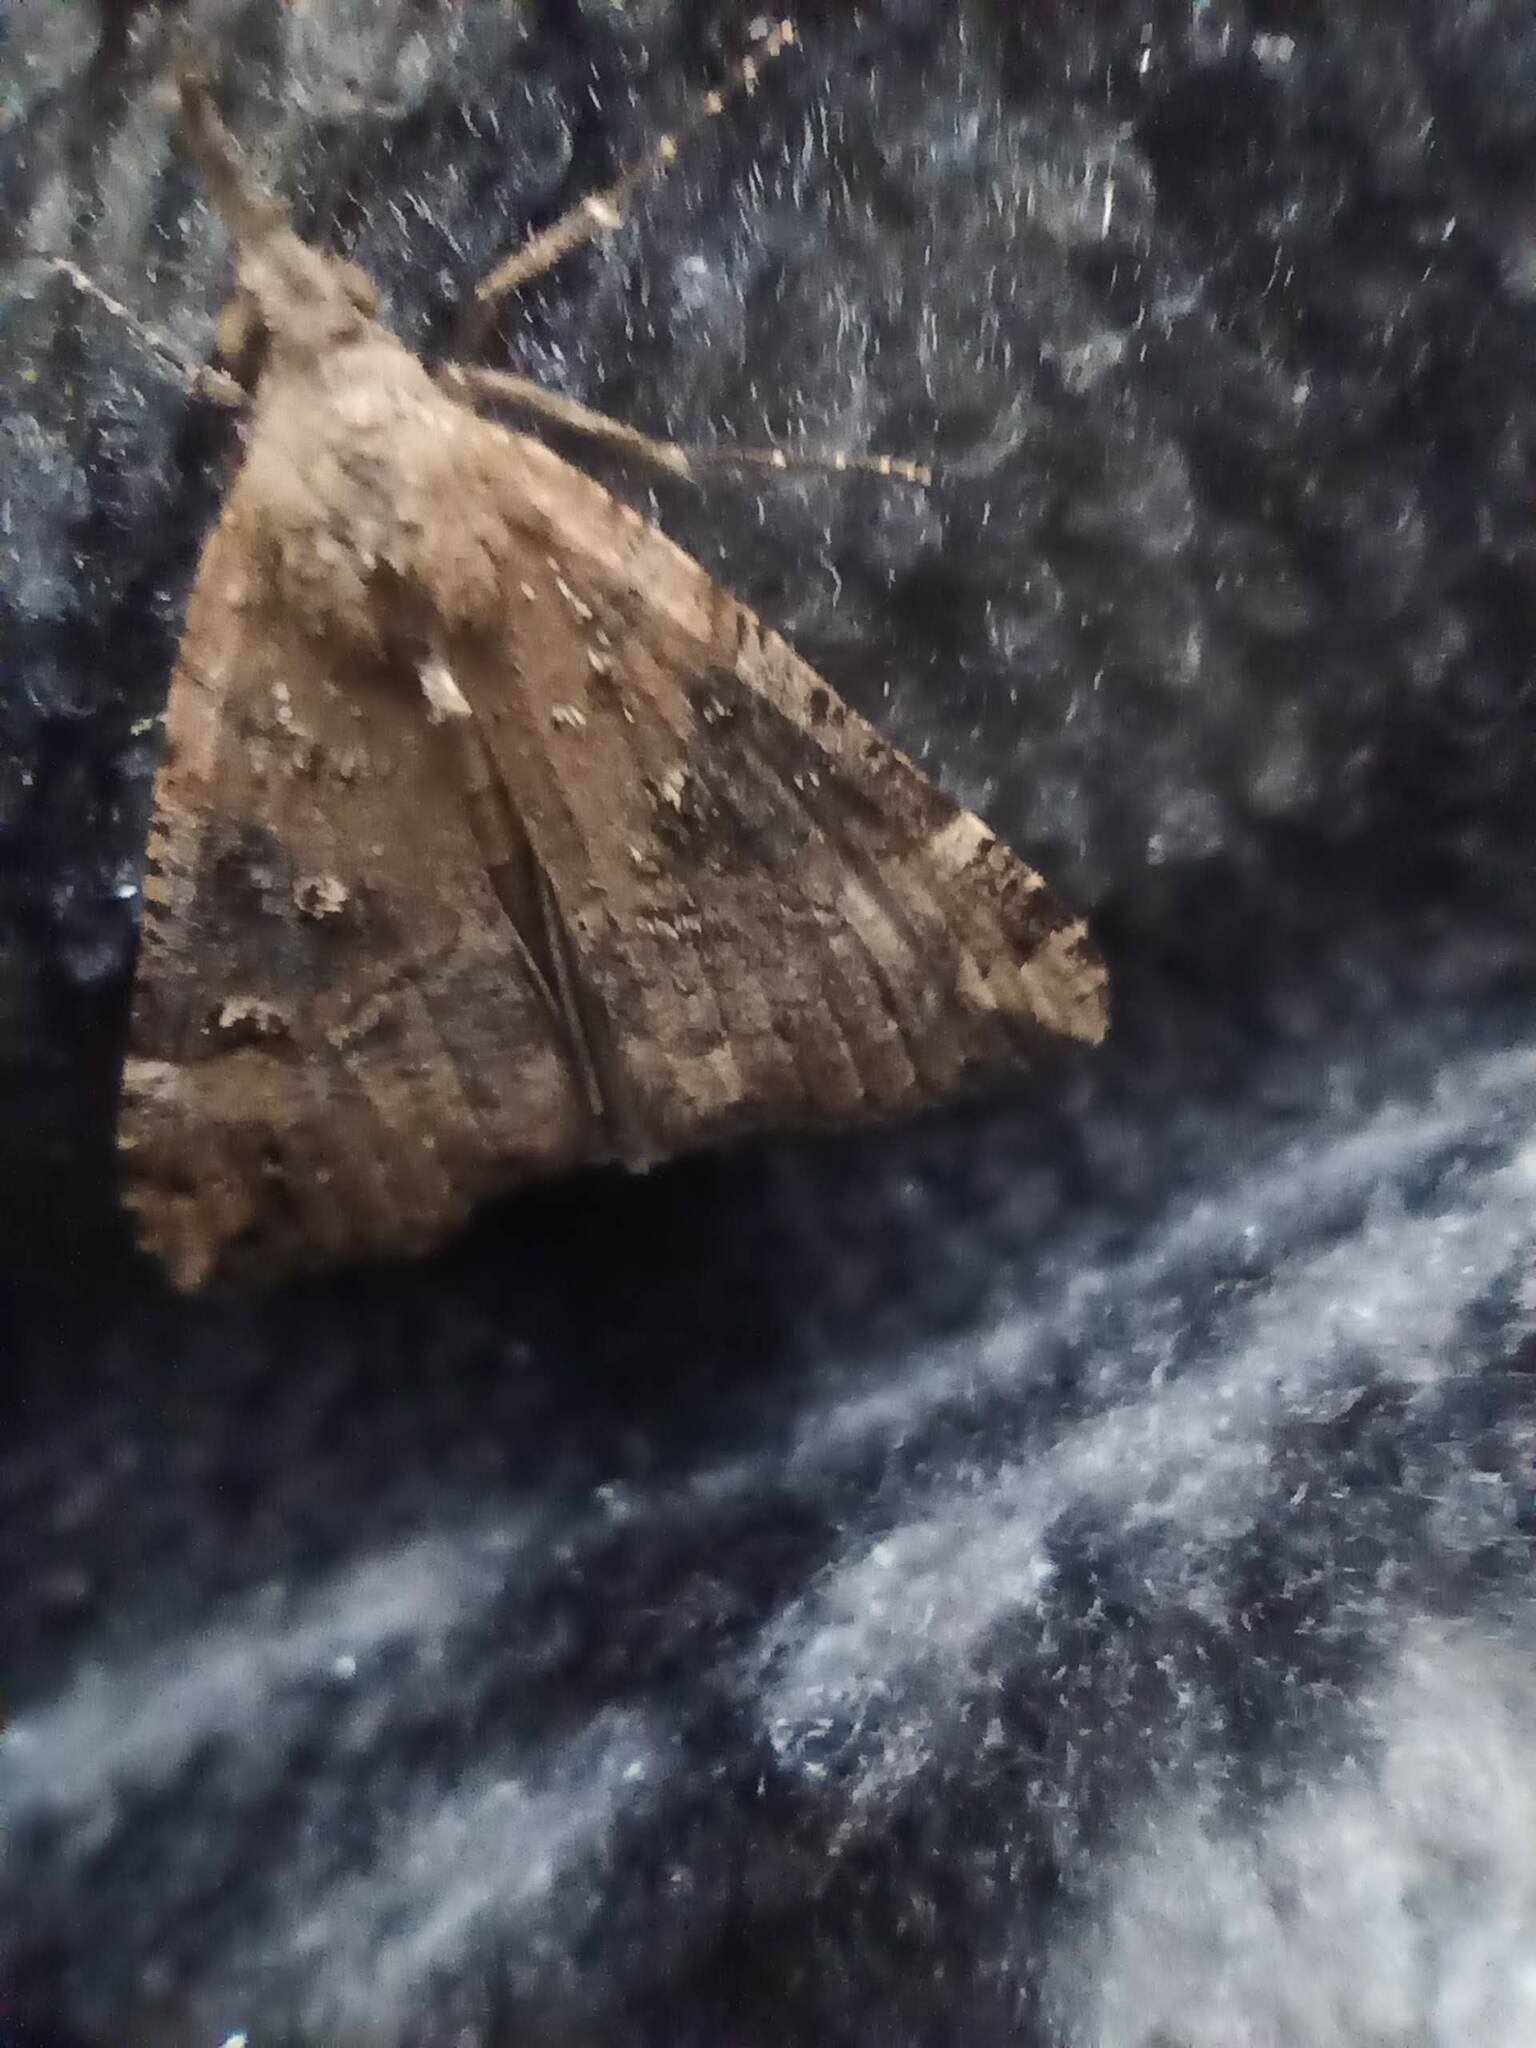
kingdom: Animalia
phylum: Arthropoda
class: Insecta
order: Lepidoptera
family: Erebidae
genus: Hypena
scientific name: Hypena obsitalis
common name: Bloxworth snout
